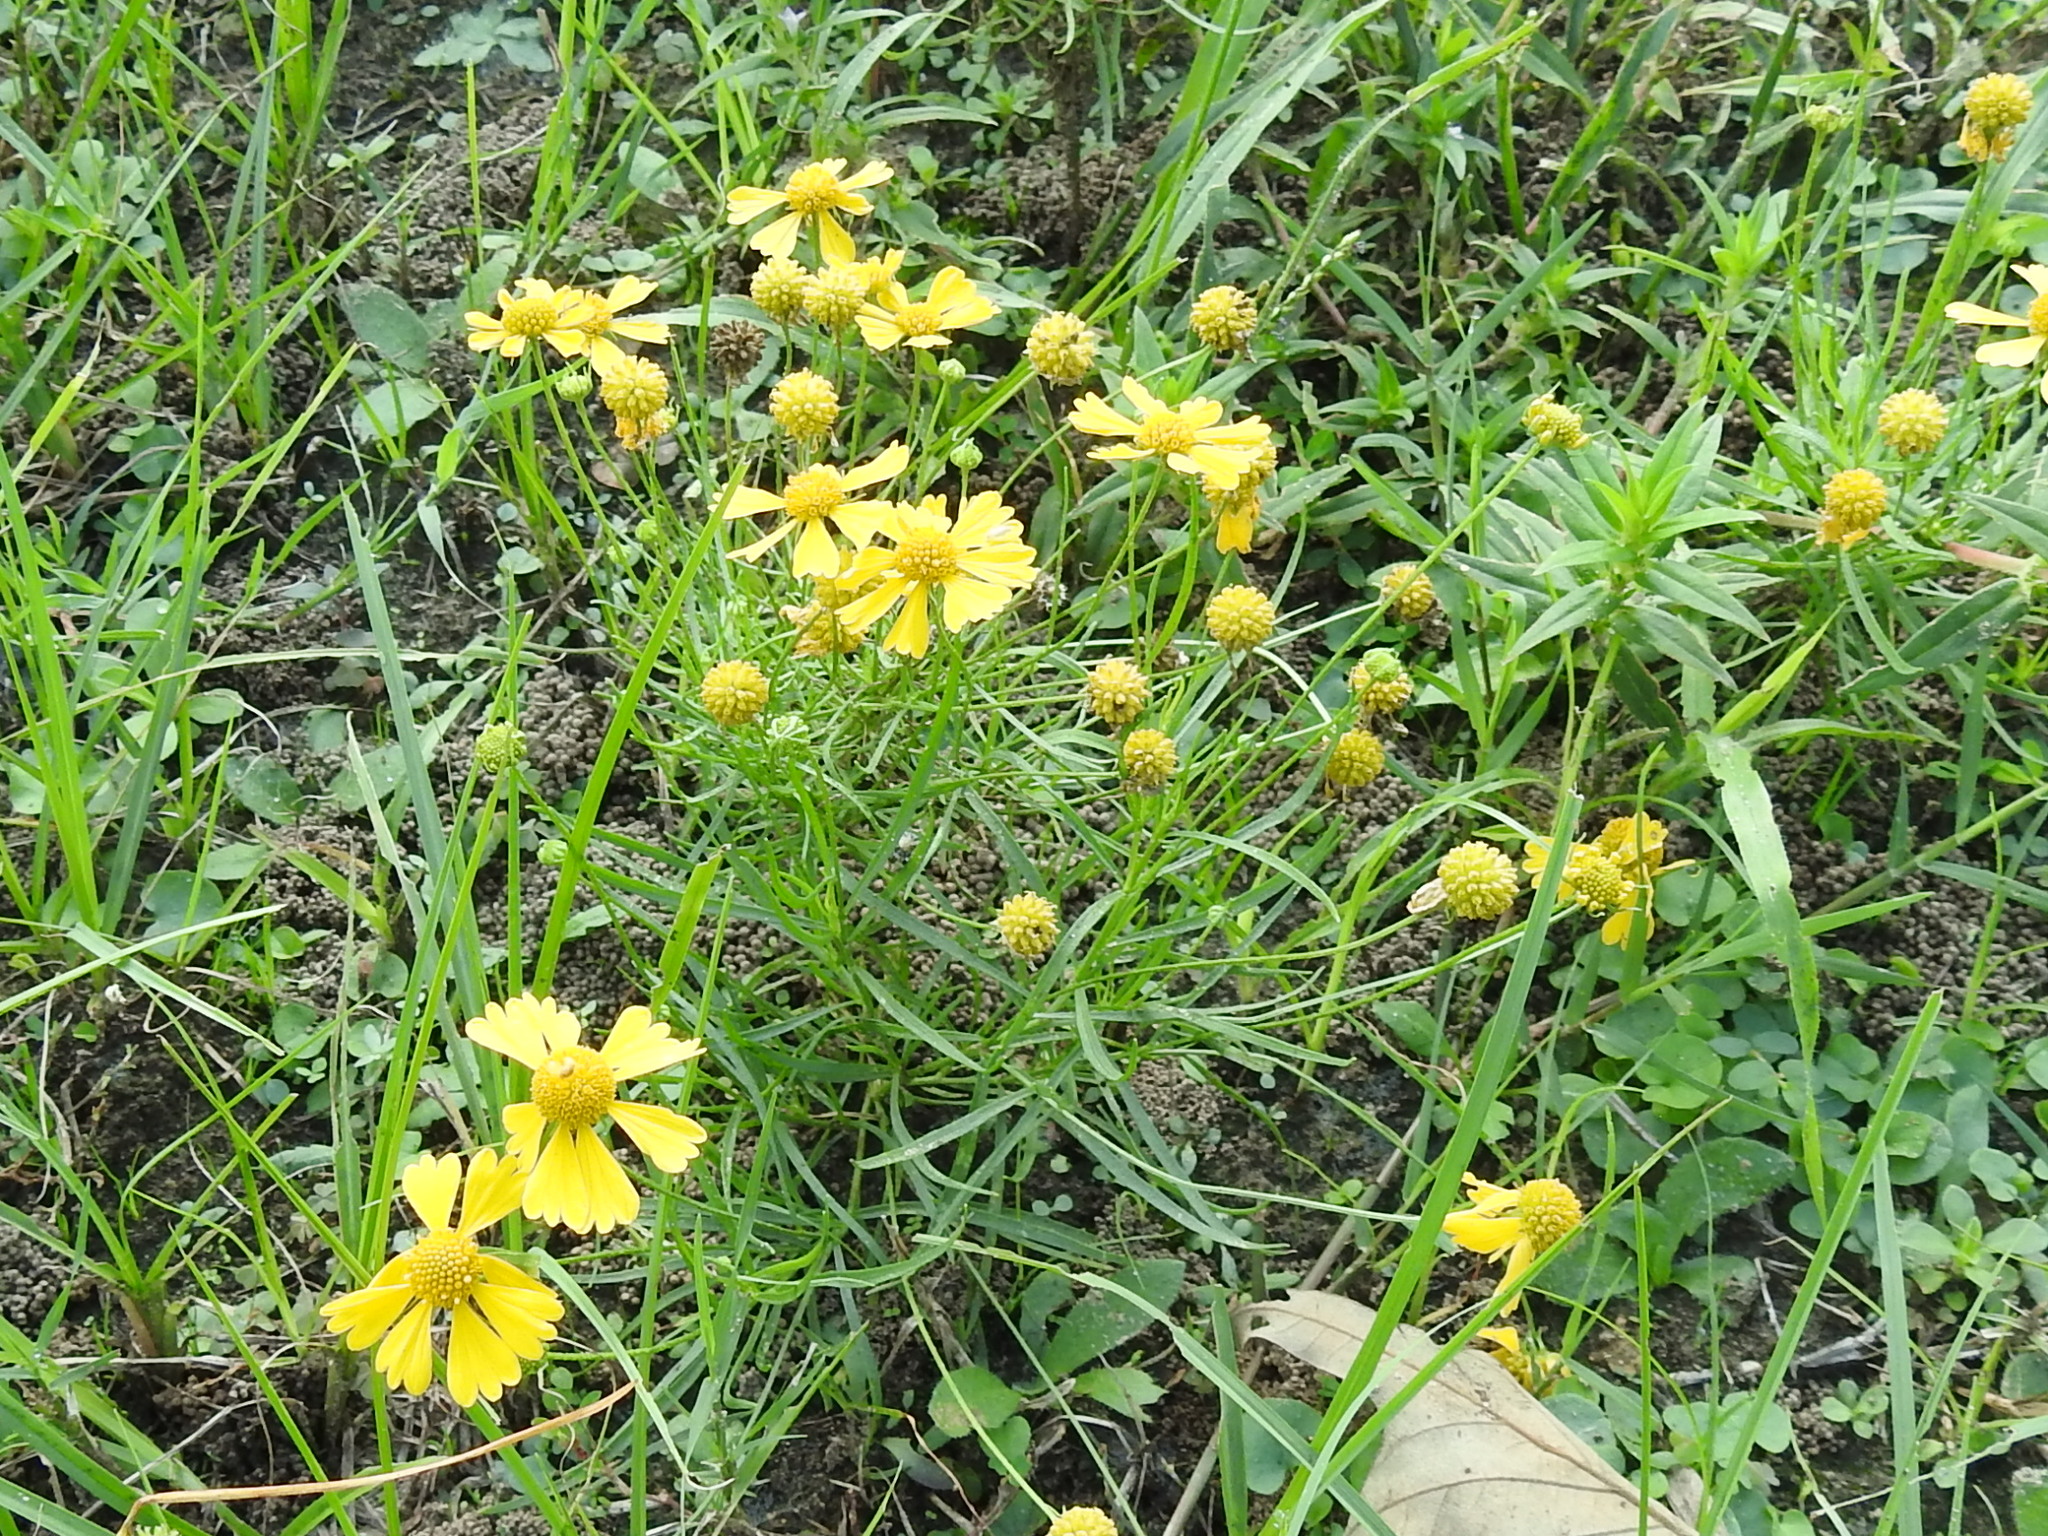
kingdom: Plantae
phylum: Tracheophyta
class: Magnoliopsida
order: Asterales
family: Asteraceae
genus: Helenium
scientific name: Helenium amarum
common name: Bitter sneezeweed
